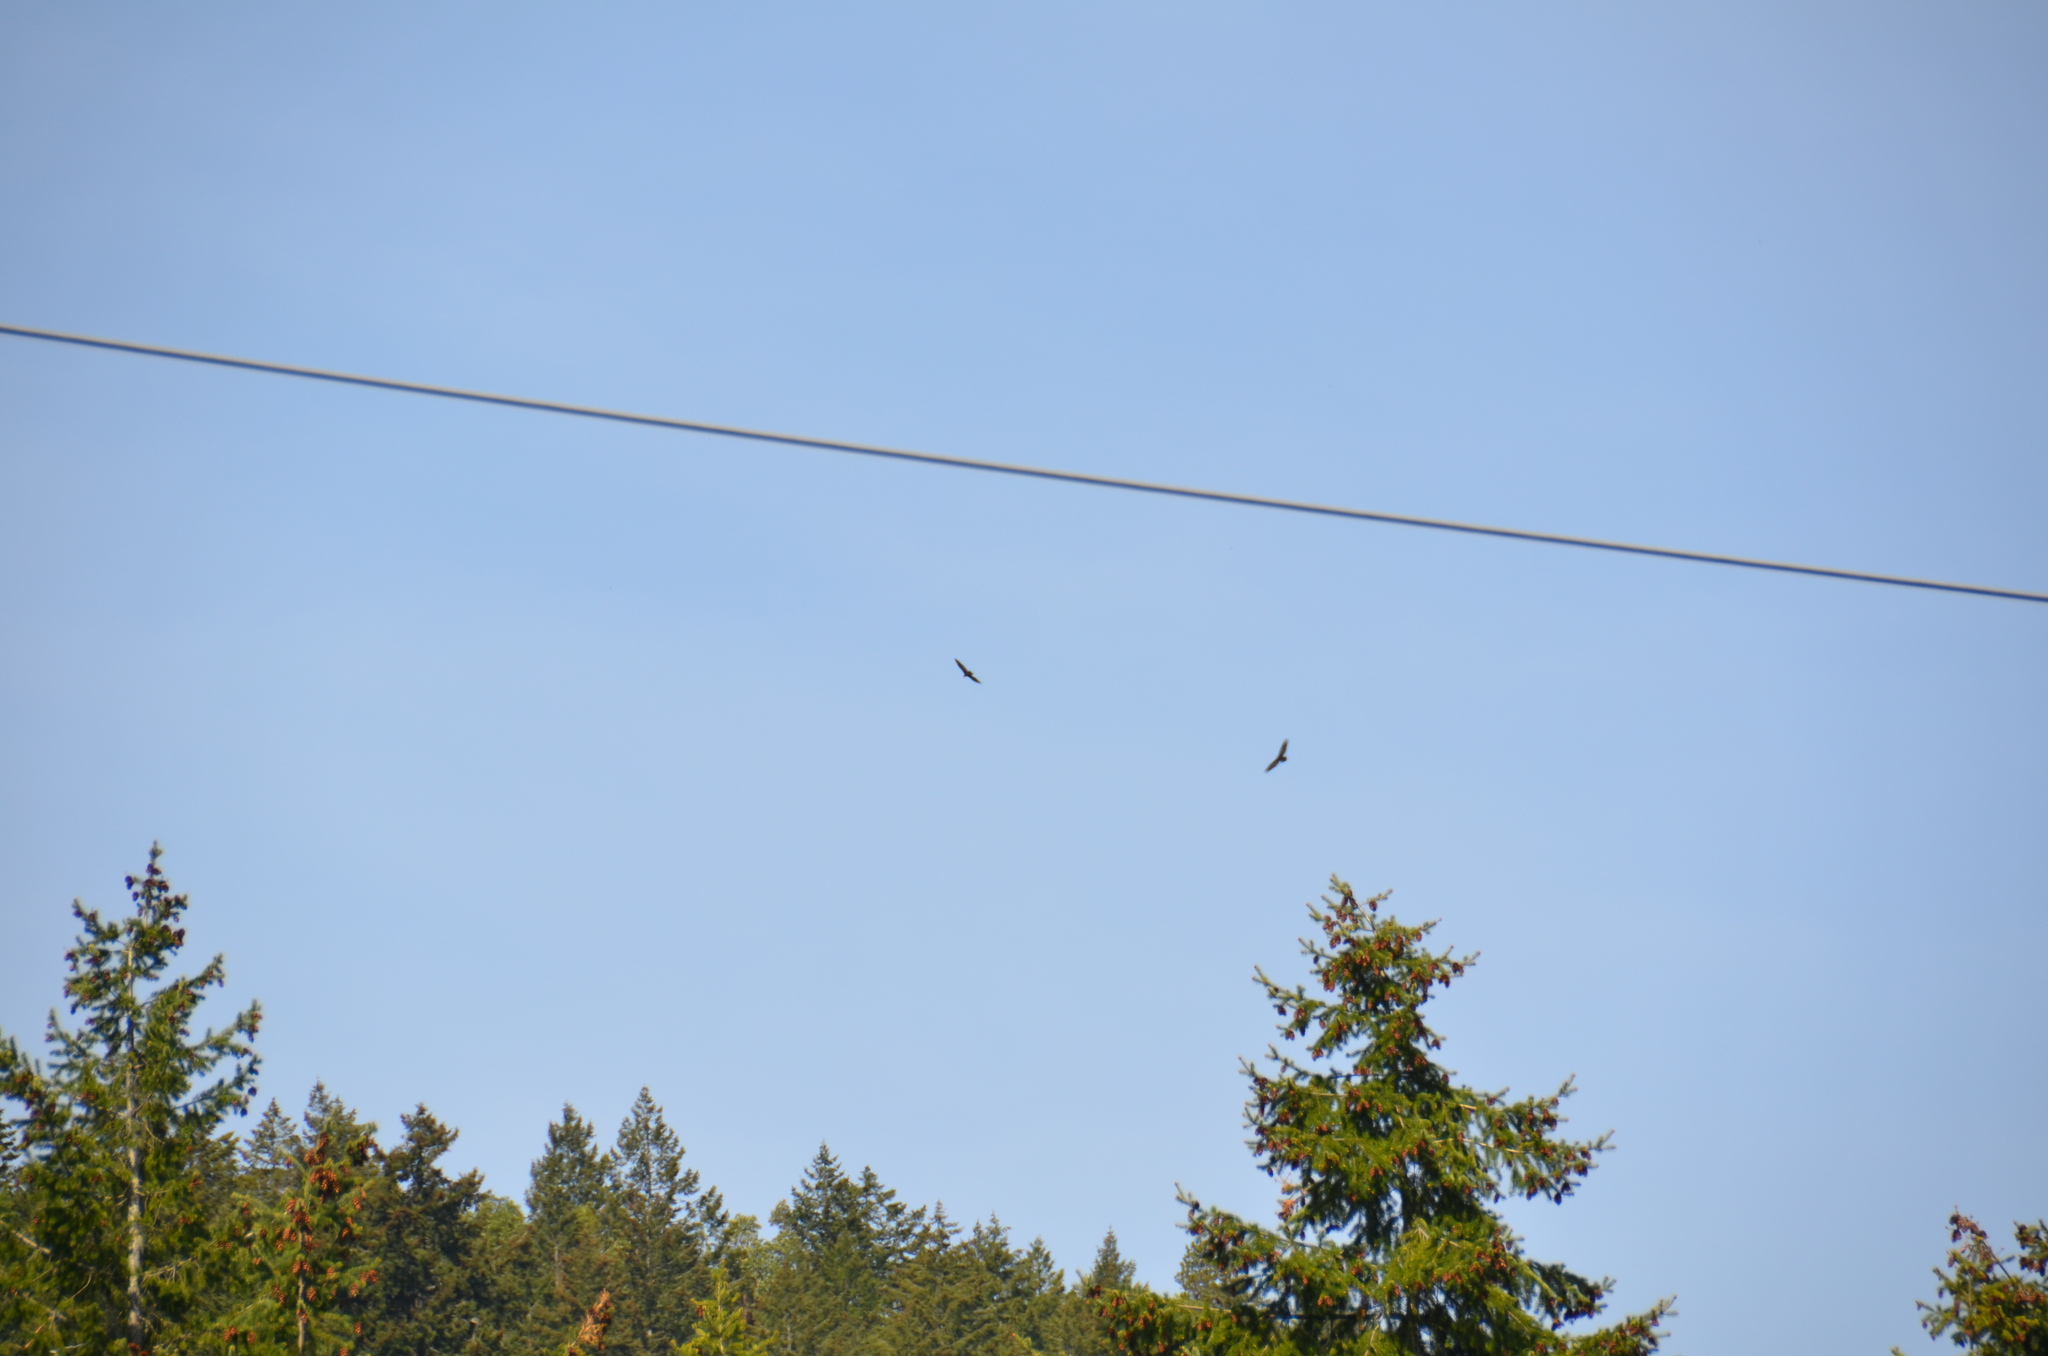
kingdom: Animalia
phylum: Chordata
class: Aves
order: Accipitriformes
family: Cathartidae
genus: Cathartes
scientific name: Cathartes aura
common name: Turkey vulture
